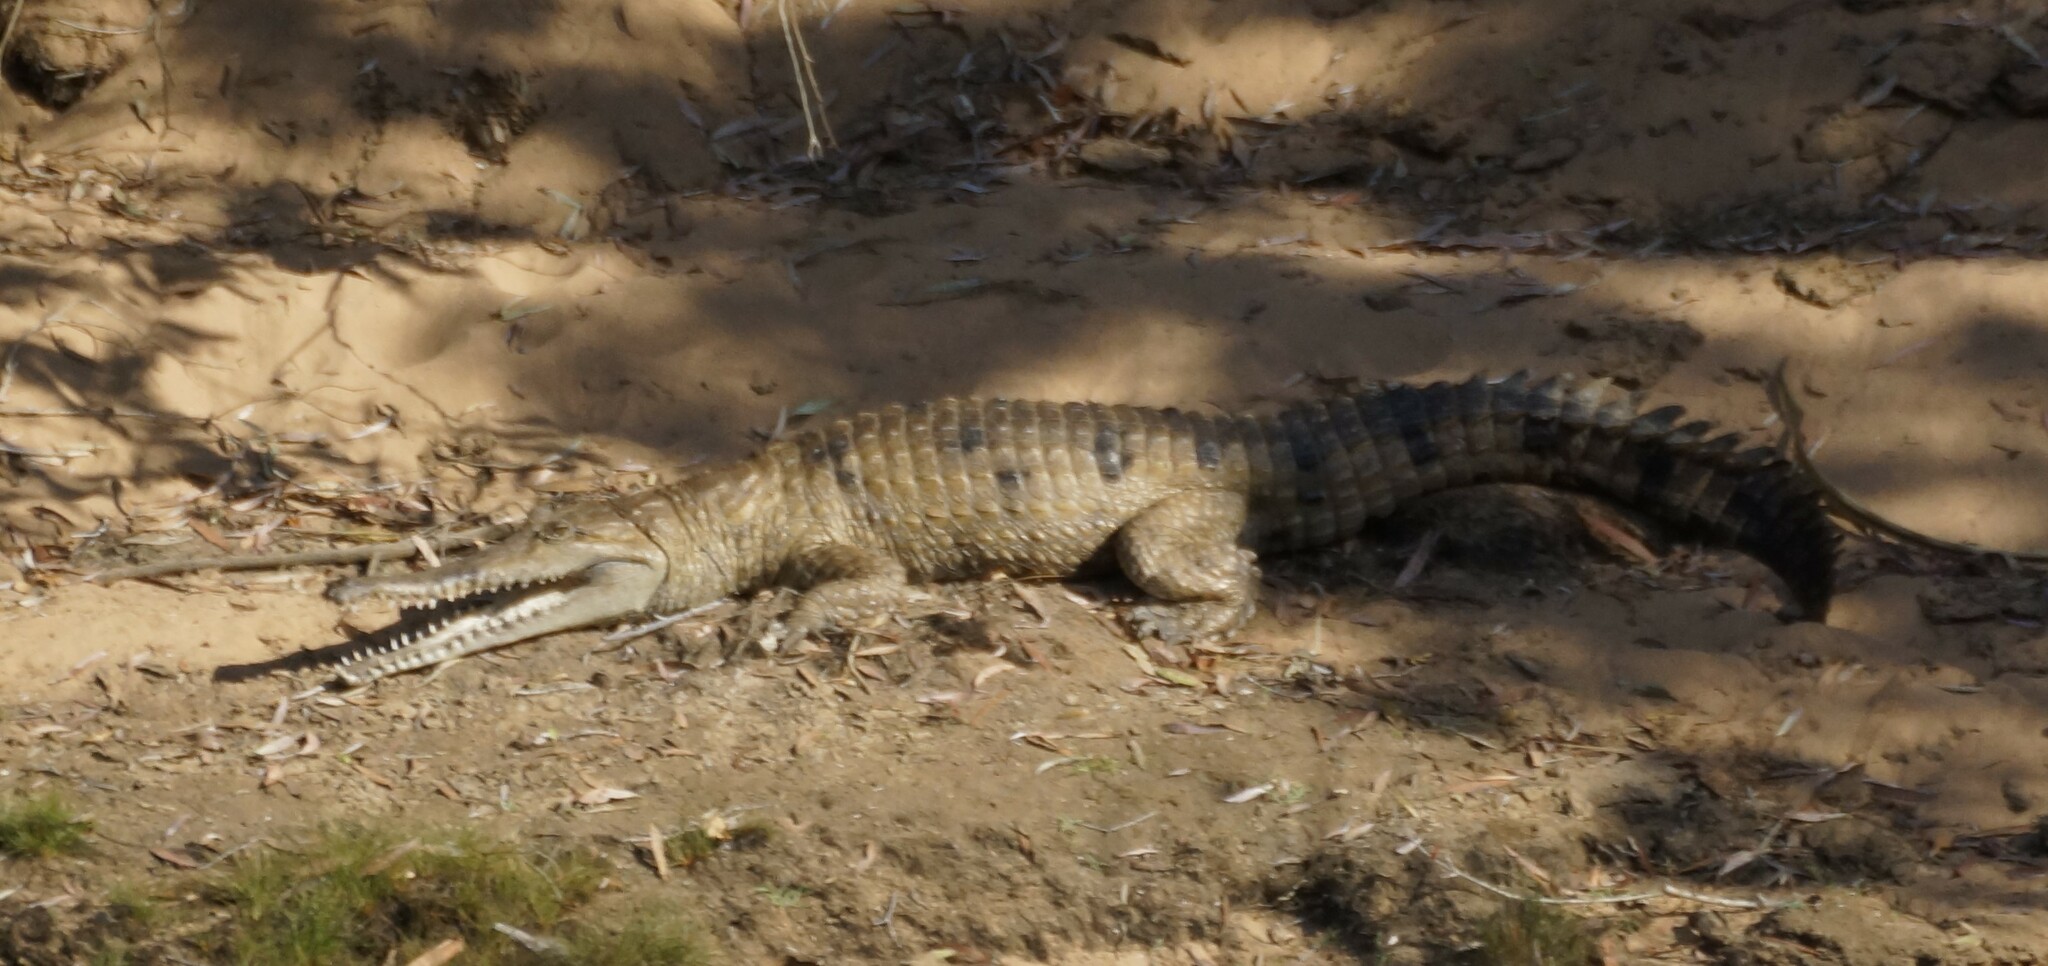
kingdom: Animalia
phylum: Chordata
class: Crocodylia
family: Crocodylidae
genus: Crocodylus
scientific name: Crocodylus johnsoni
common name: Freshwater crocodile
